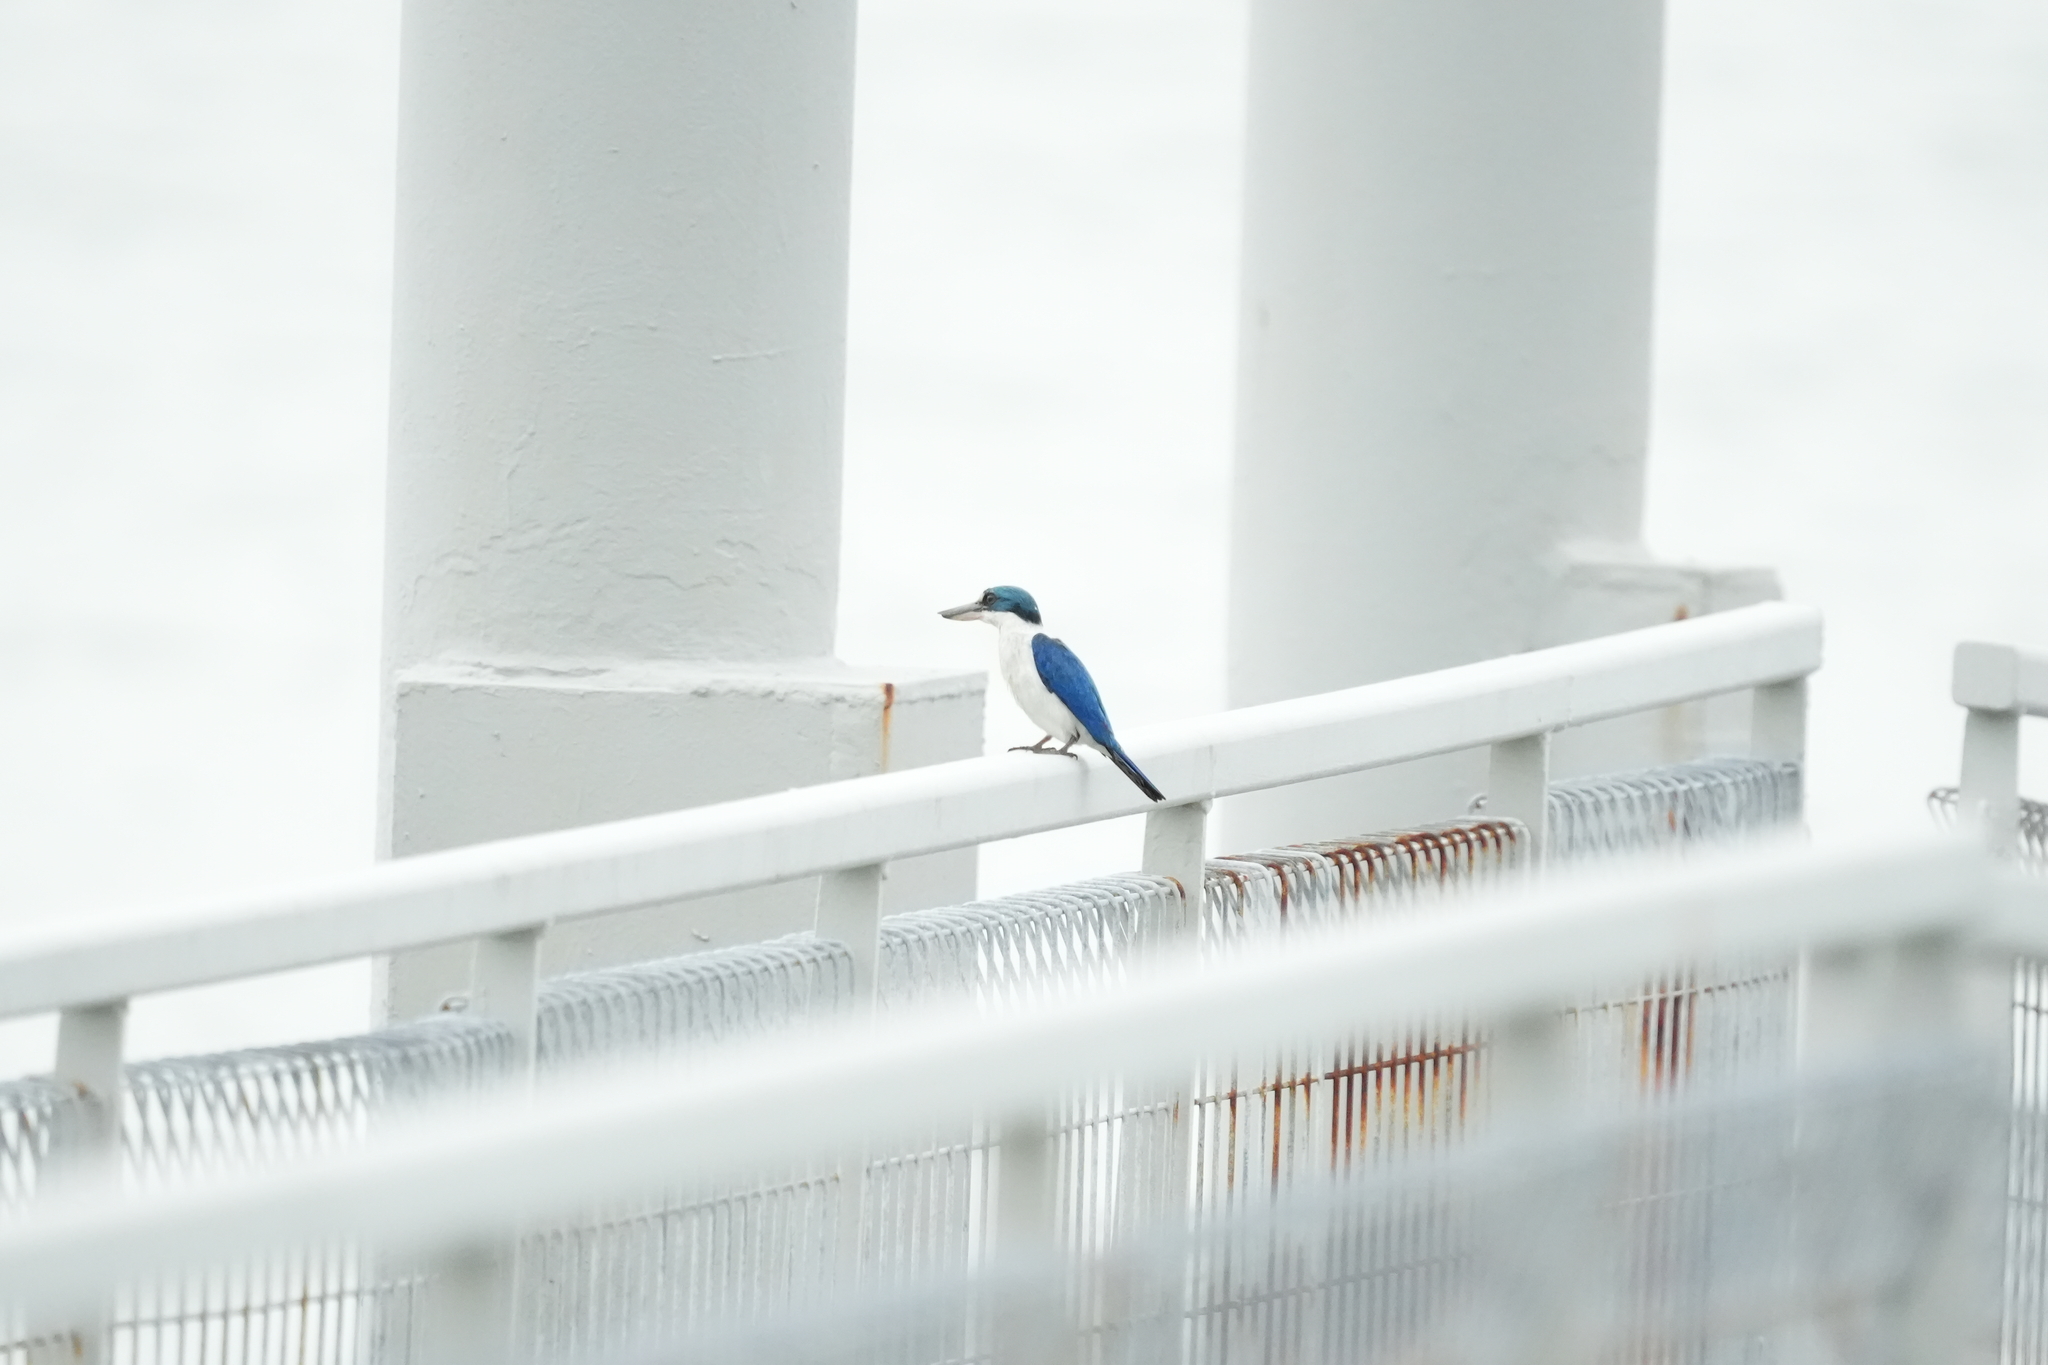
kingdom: Animalia
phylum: Chordata
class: Aves
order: Coraciiformes
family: Alcedinidae
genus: Todiramphus
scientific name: Todiramphus chloris
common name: Collared kingfisher
